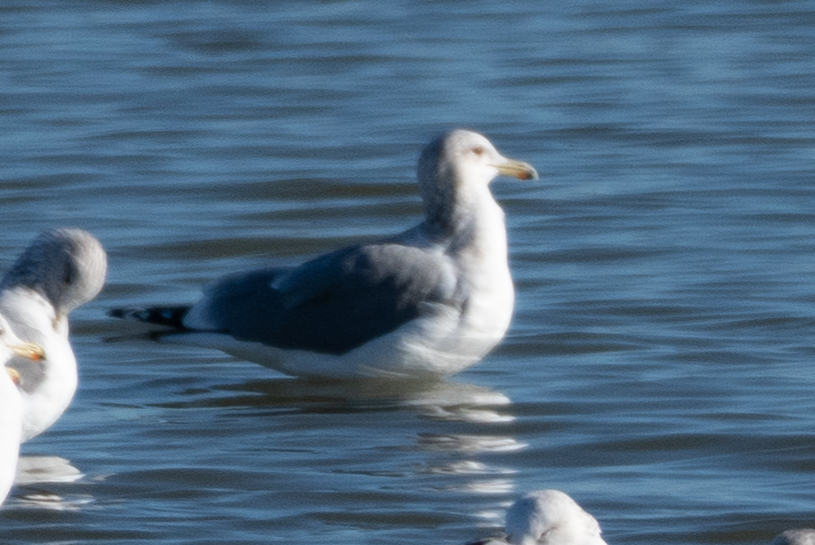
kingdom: Animalia
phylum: Chordata
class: Aves
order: Charadriiformes
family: Laridae
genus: Larus
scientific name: Larus californicus
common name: California gull
